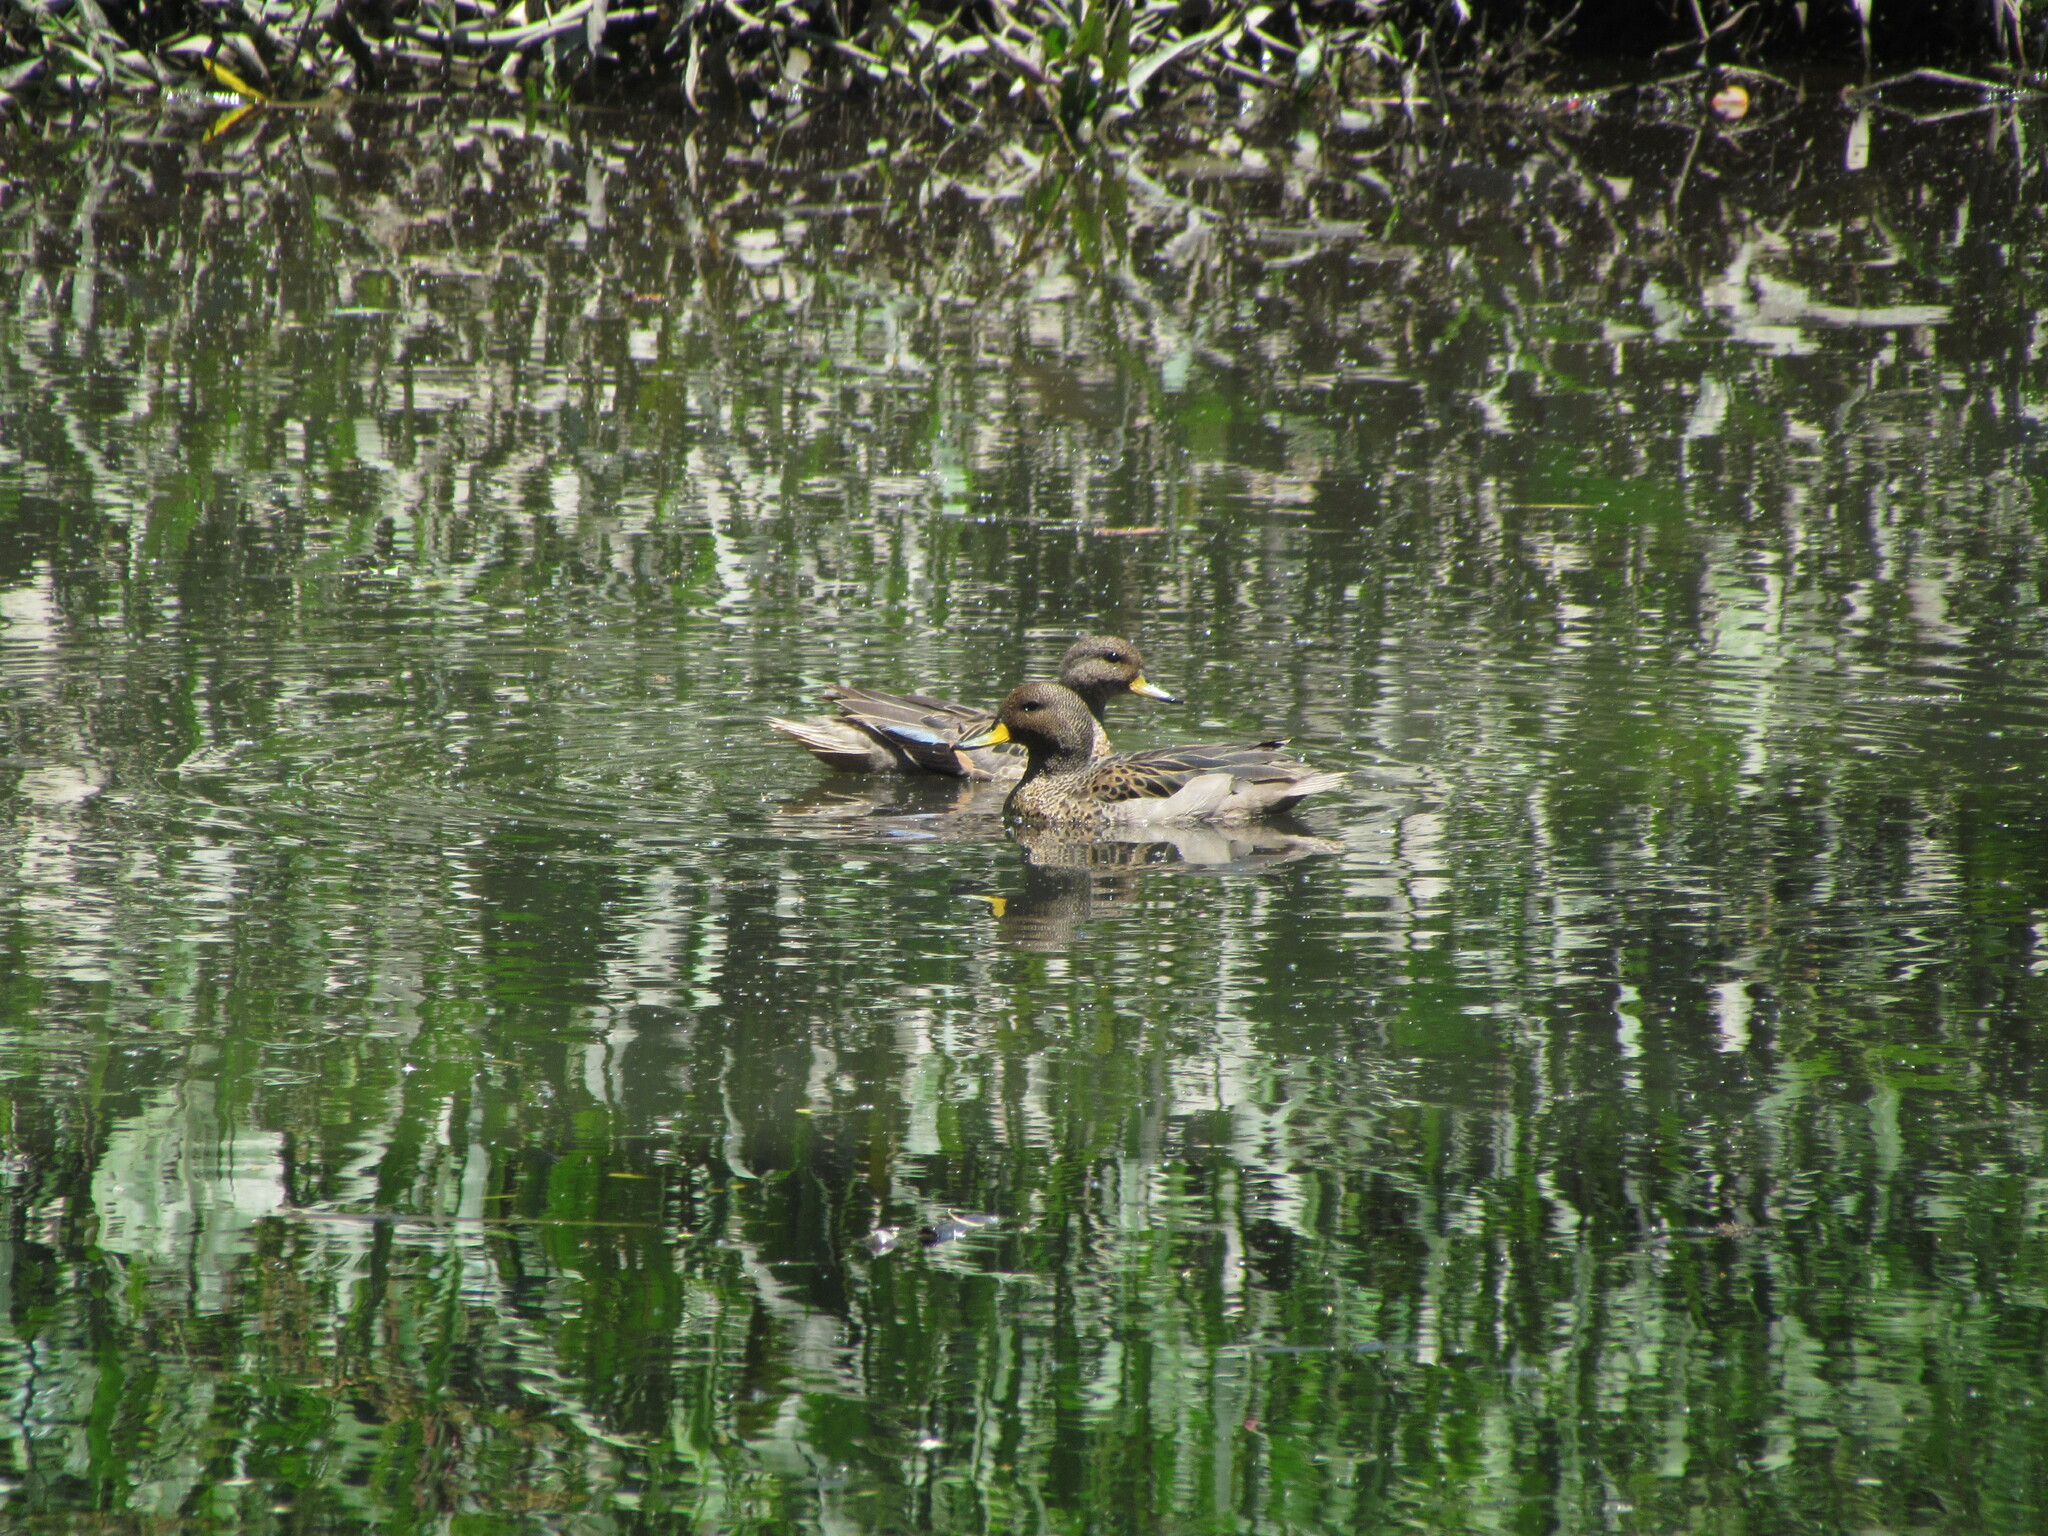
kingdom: Animalia
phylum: Chordata
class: Aves
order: Anseriformes
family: Anatidae
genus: Anas
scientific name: Anas flavirostris
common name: Yellow-billed teal
